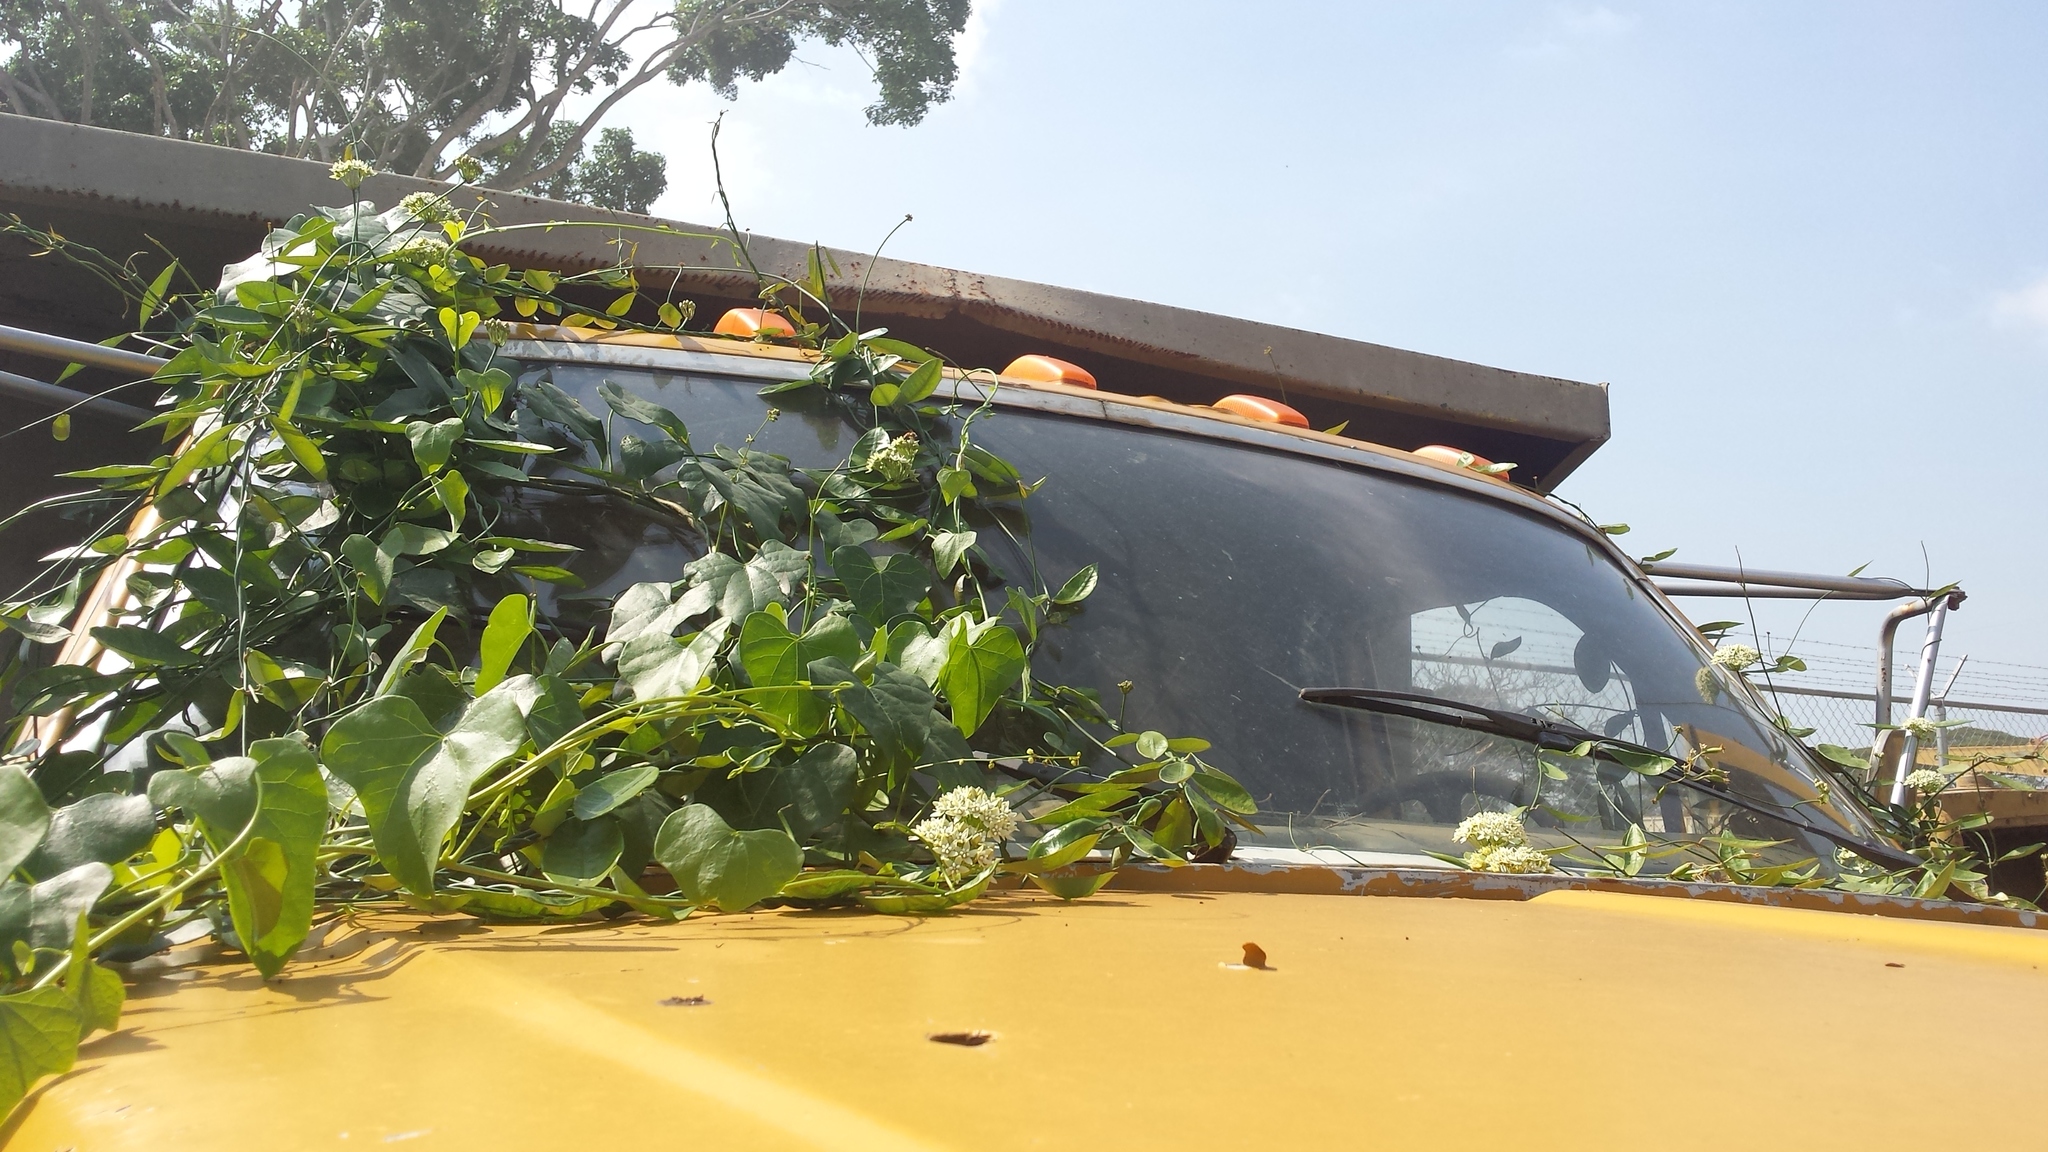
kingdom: Plantae
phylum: Tracheophyta
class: Magnoliopsida
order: Gentianales
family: Apocynaceae
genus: Funastrum
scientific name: Funastrum clausum
